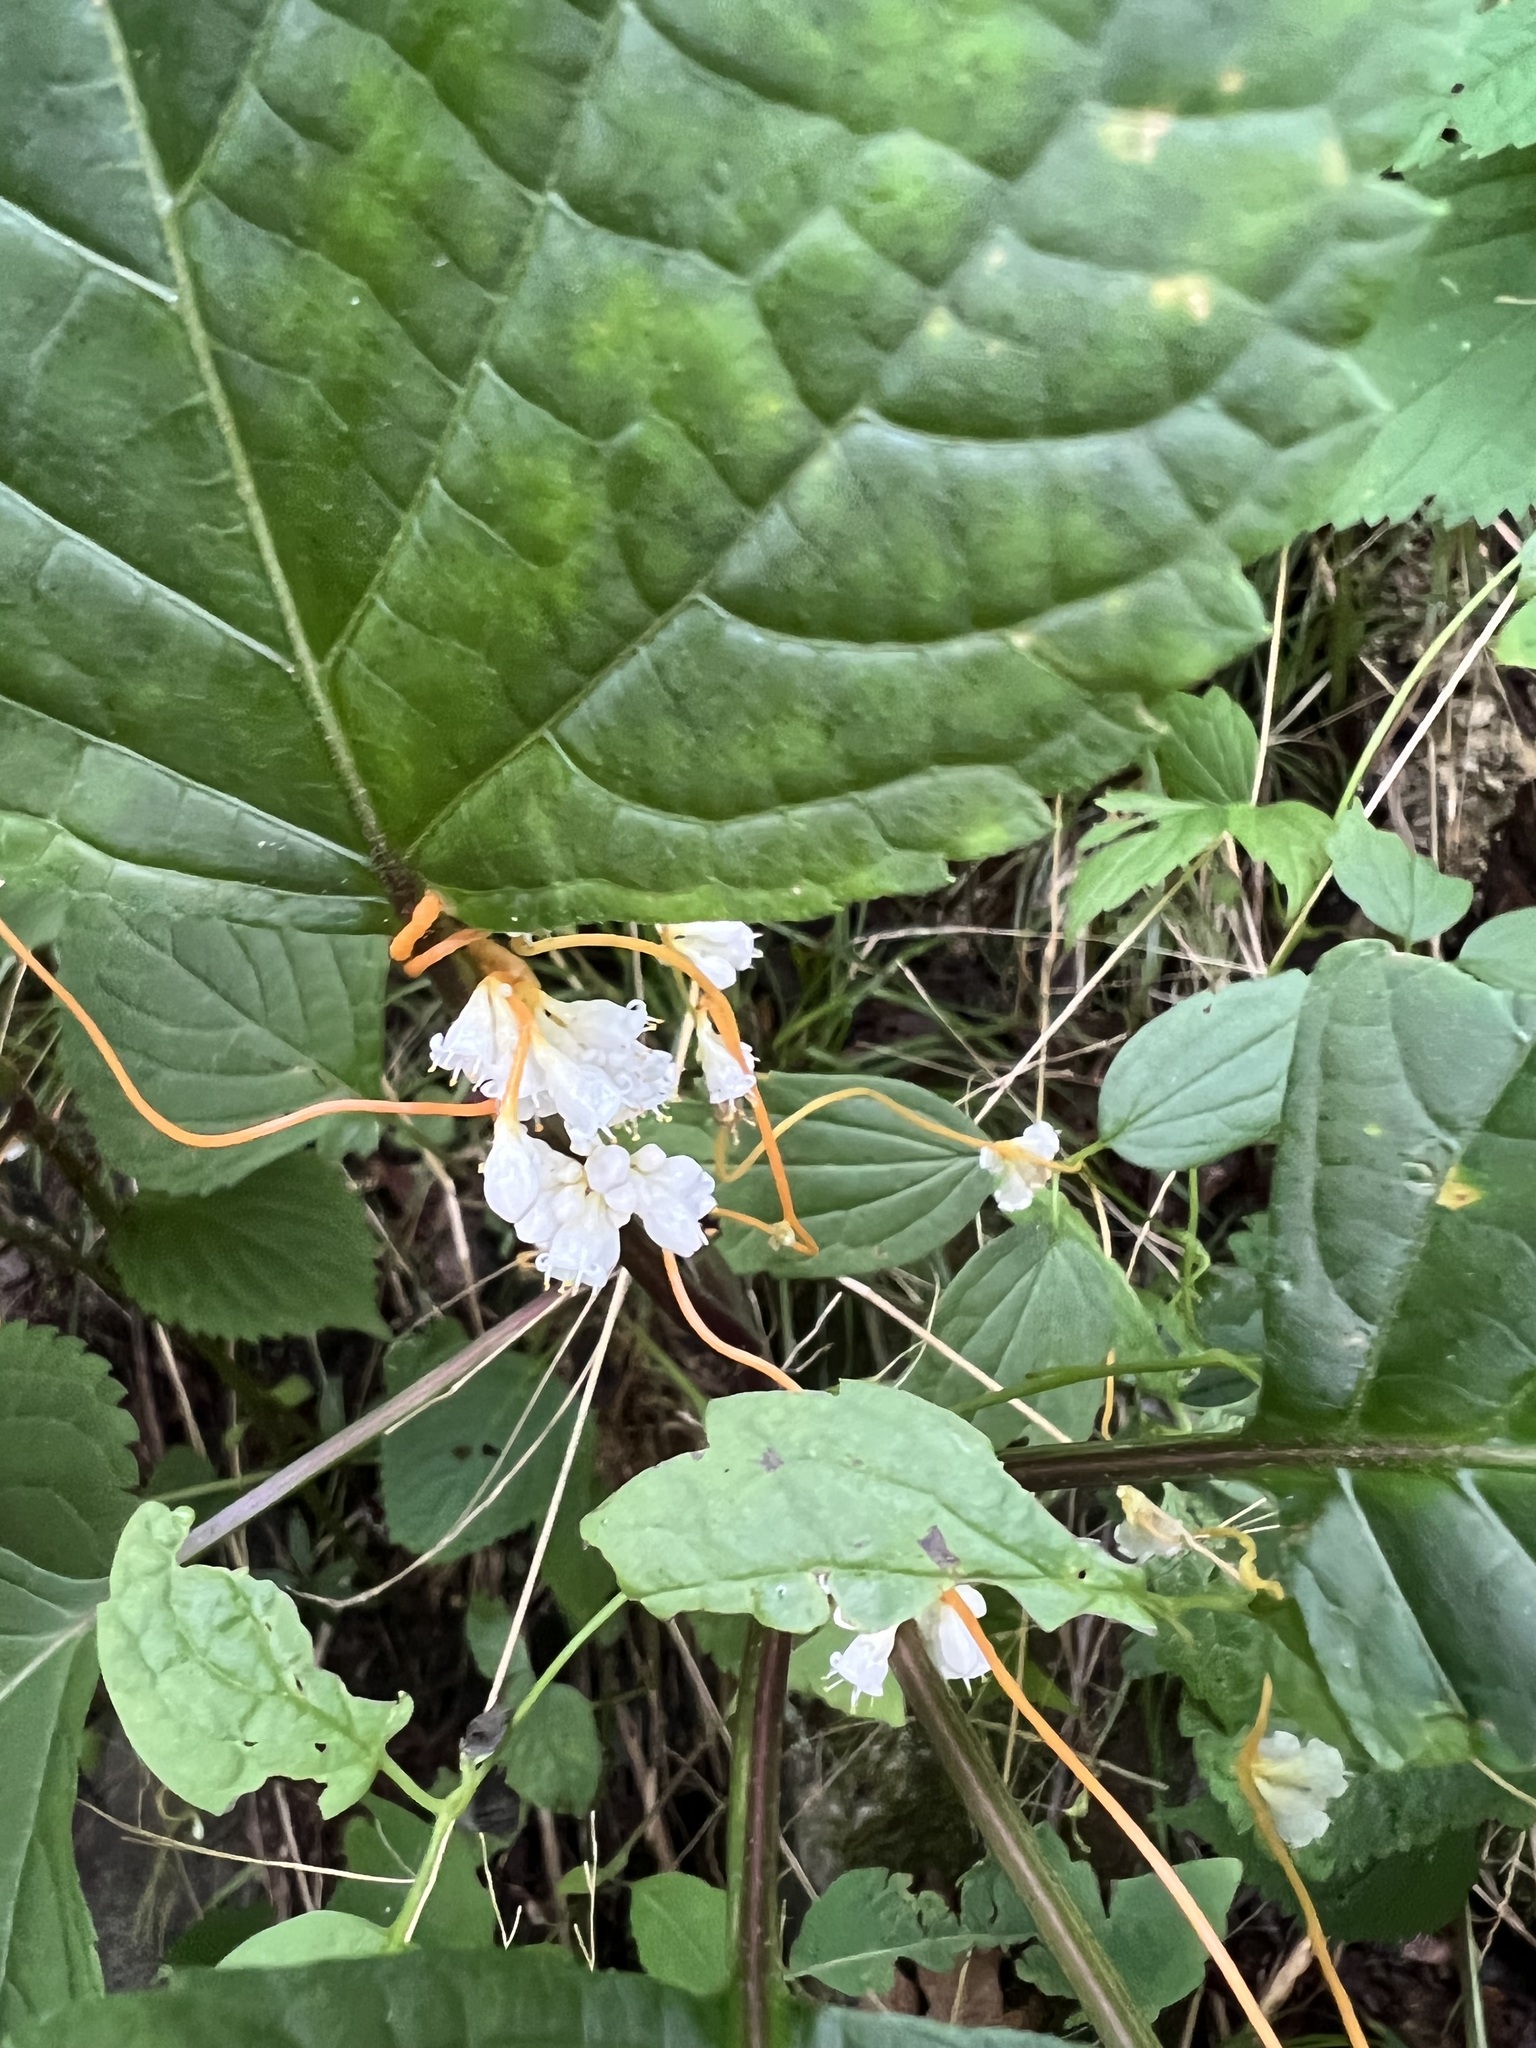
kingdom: Plantae
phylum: Tracheophyta
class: Magnoliopsida
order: Solanales
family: Convolvulaceae
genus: Cuscuta
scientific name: Cuscuta gronovii
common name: Common dodder
